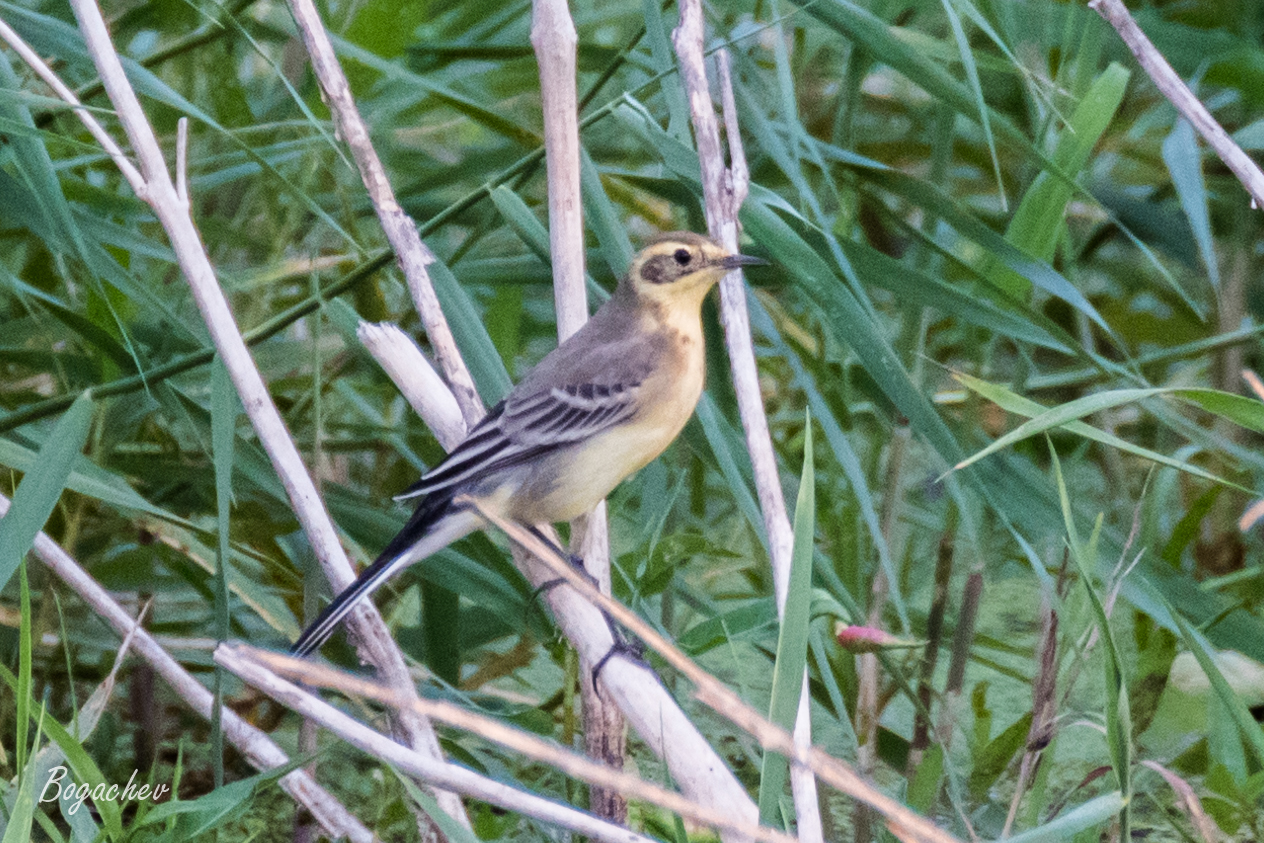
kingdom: Animalia
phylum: Chordata
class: Aves
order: Passeriformes
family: Motacillidae
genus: Motacilla
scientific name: Motacilla citreola
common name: Citrine wagtail
